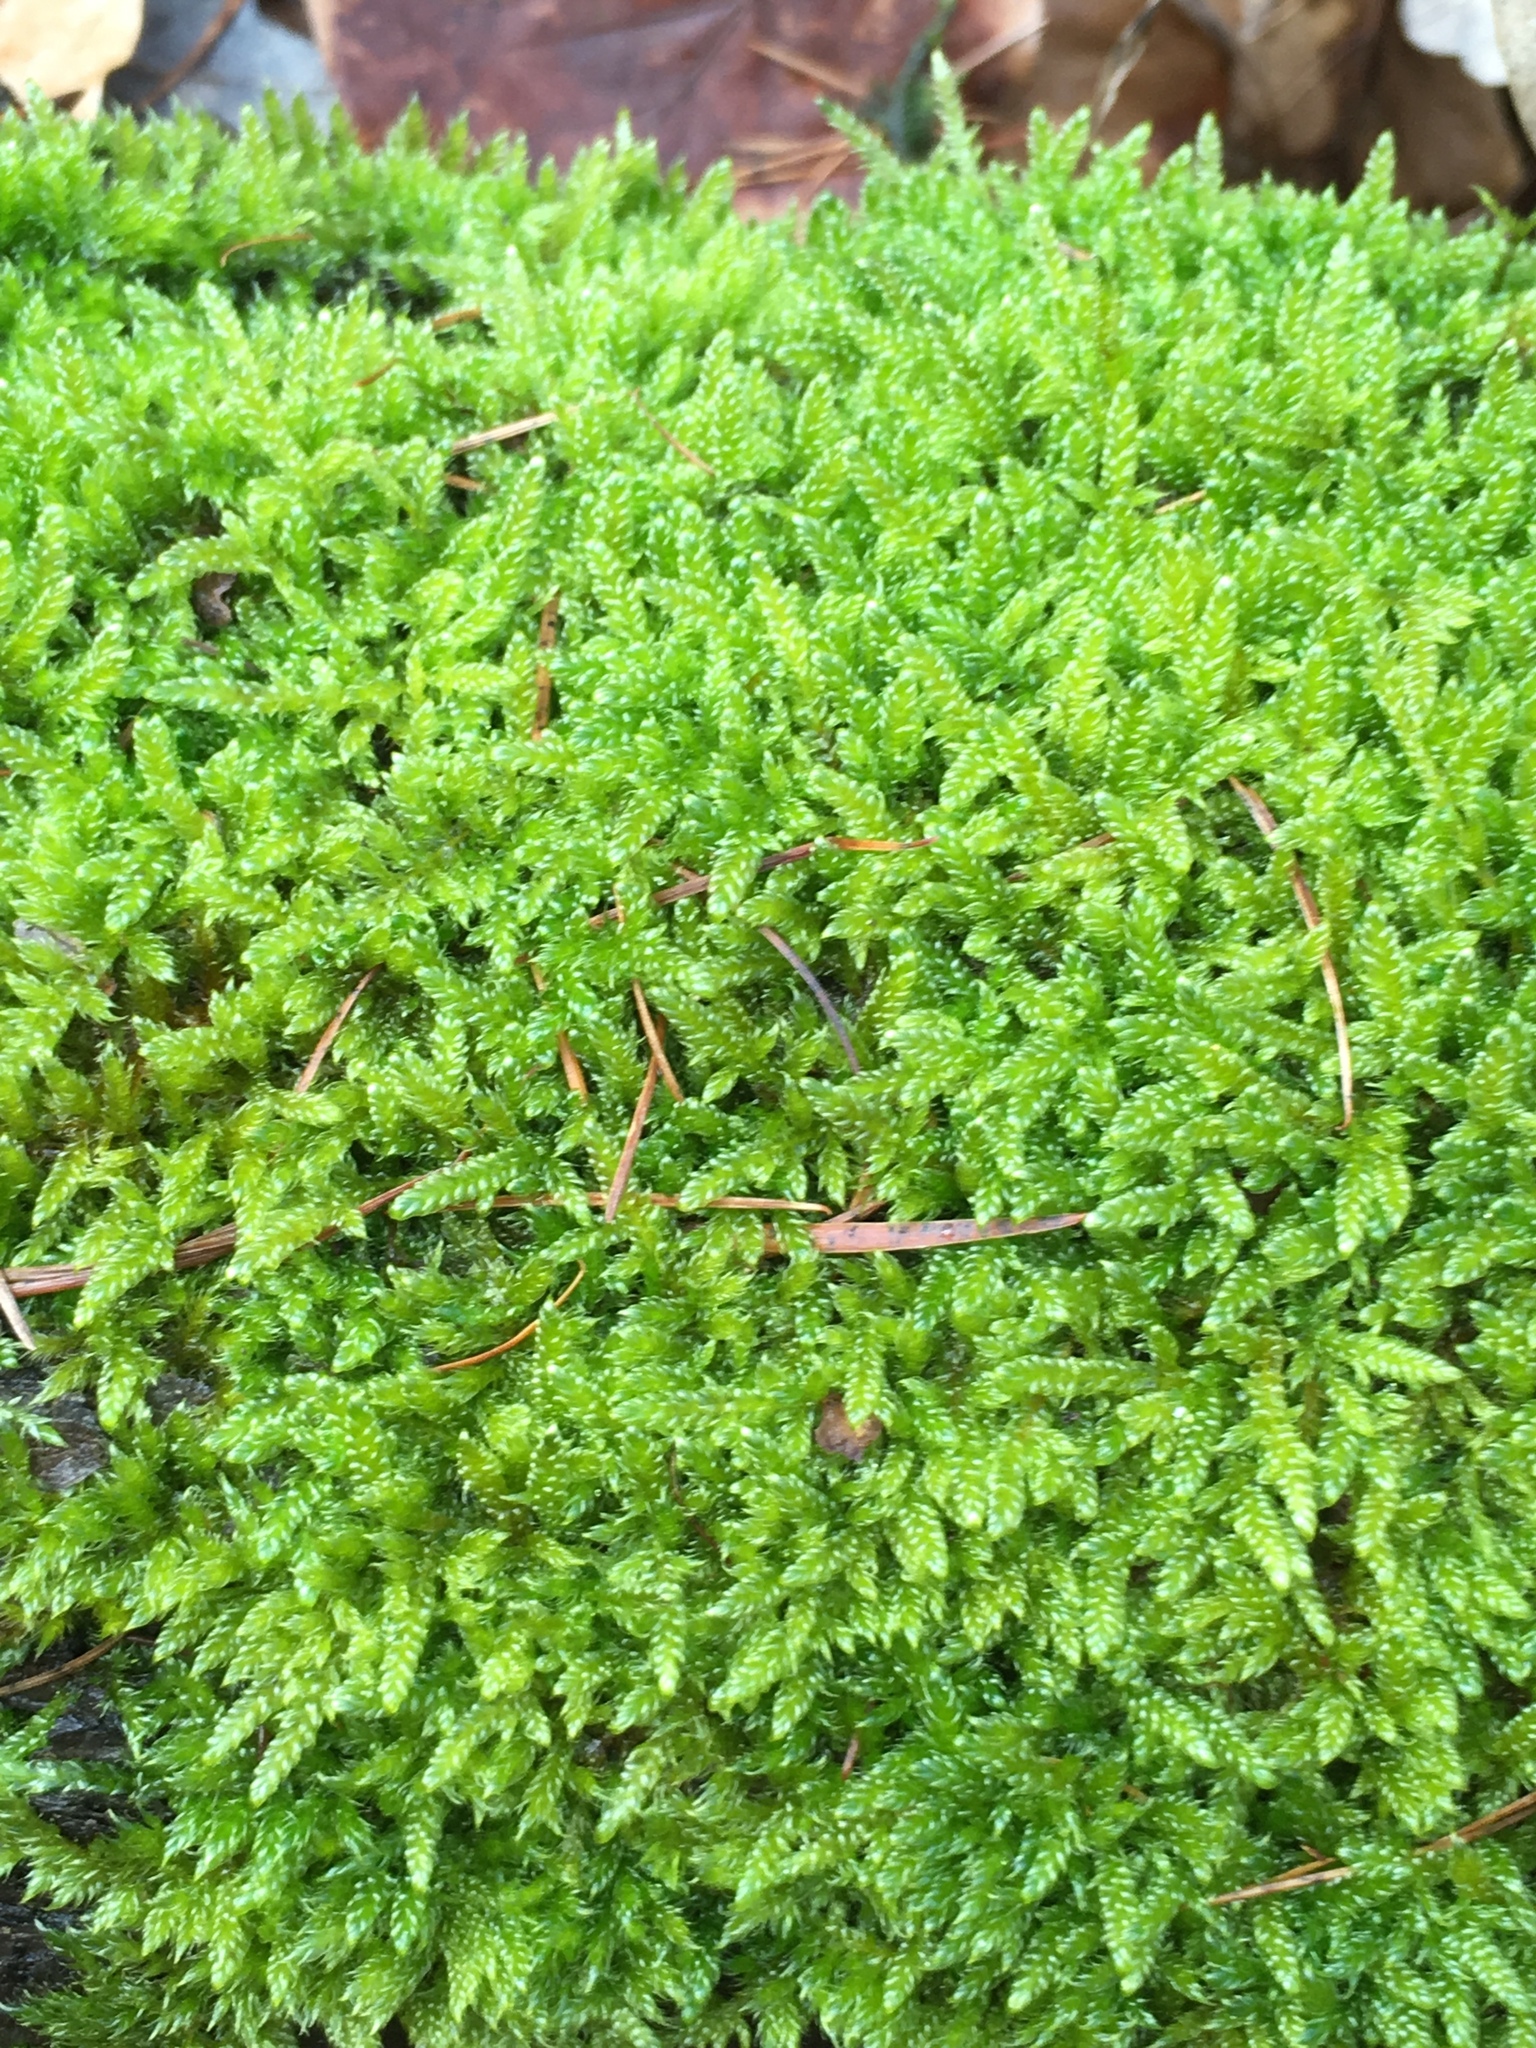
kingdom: Plantae
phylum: Bryophyta
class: Bryopsida
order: Hypnales
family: Hypnaceae
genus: Hypnum
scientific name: Hypnum cupressiforme
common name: Cypress-leaved plait-moss
